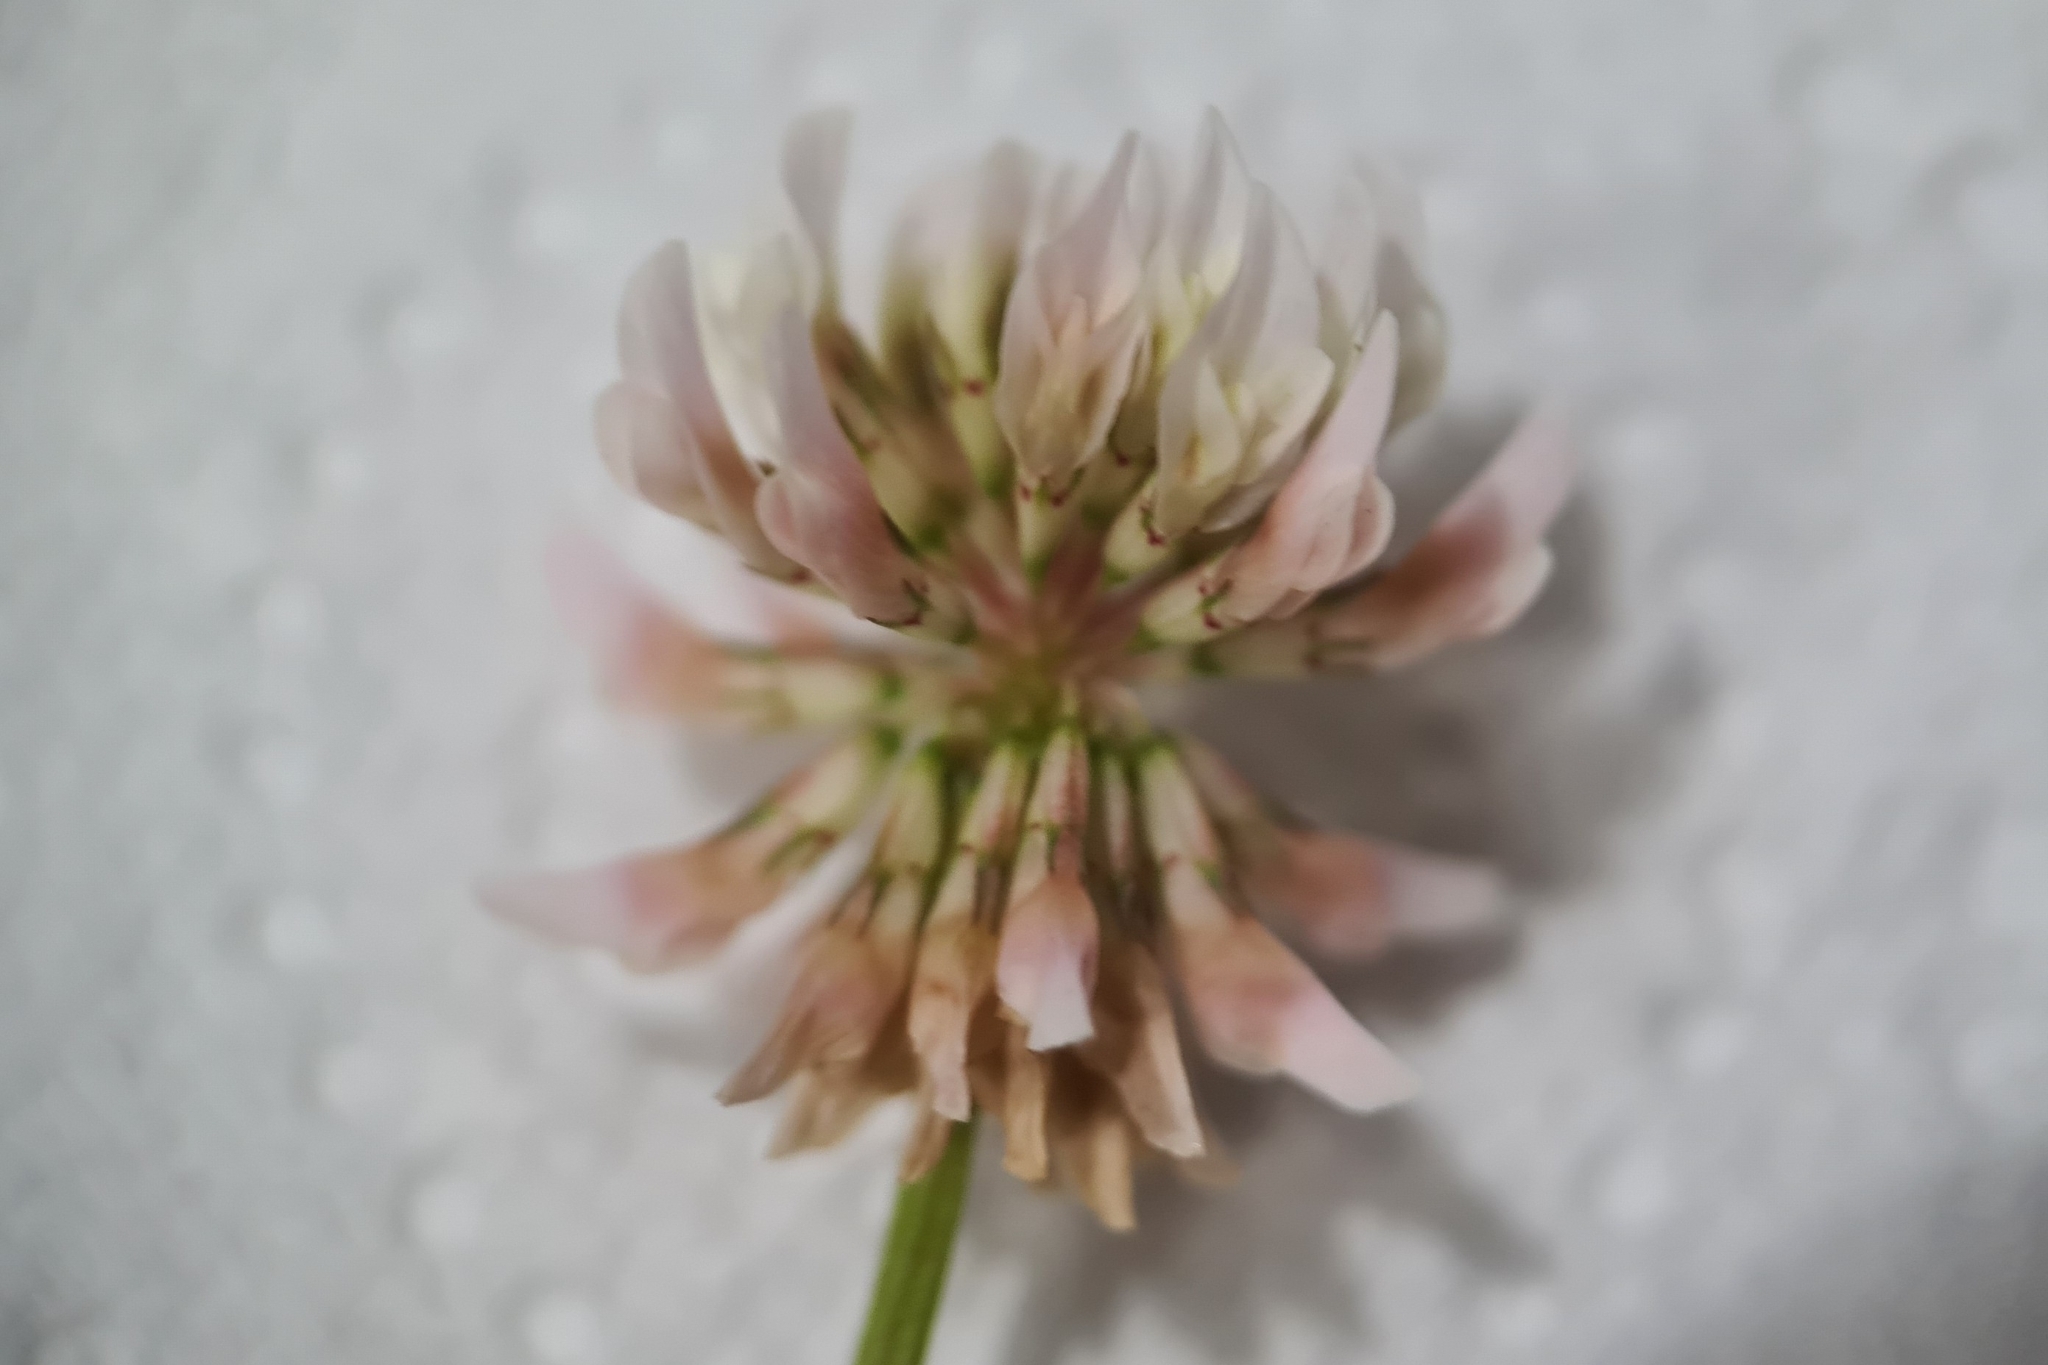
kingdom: Plantae
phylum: Tracheophyta
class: Magnoliopsida
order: Fabales
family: Fabaceae
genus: Trifolium
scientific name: Trifolium repens
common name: White clover
